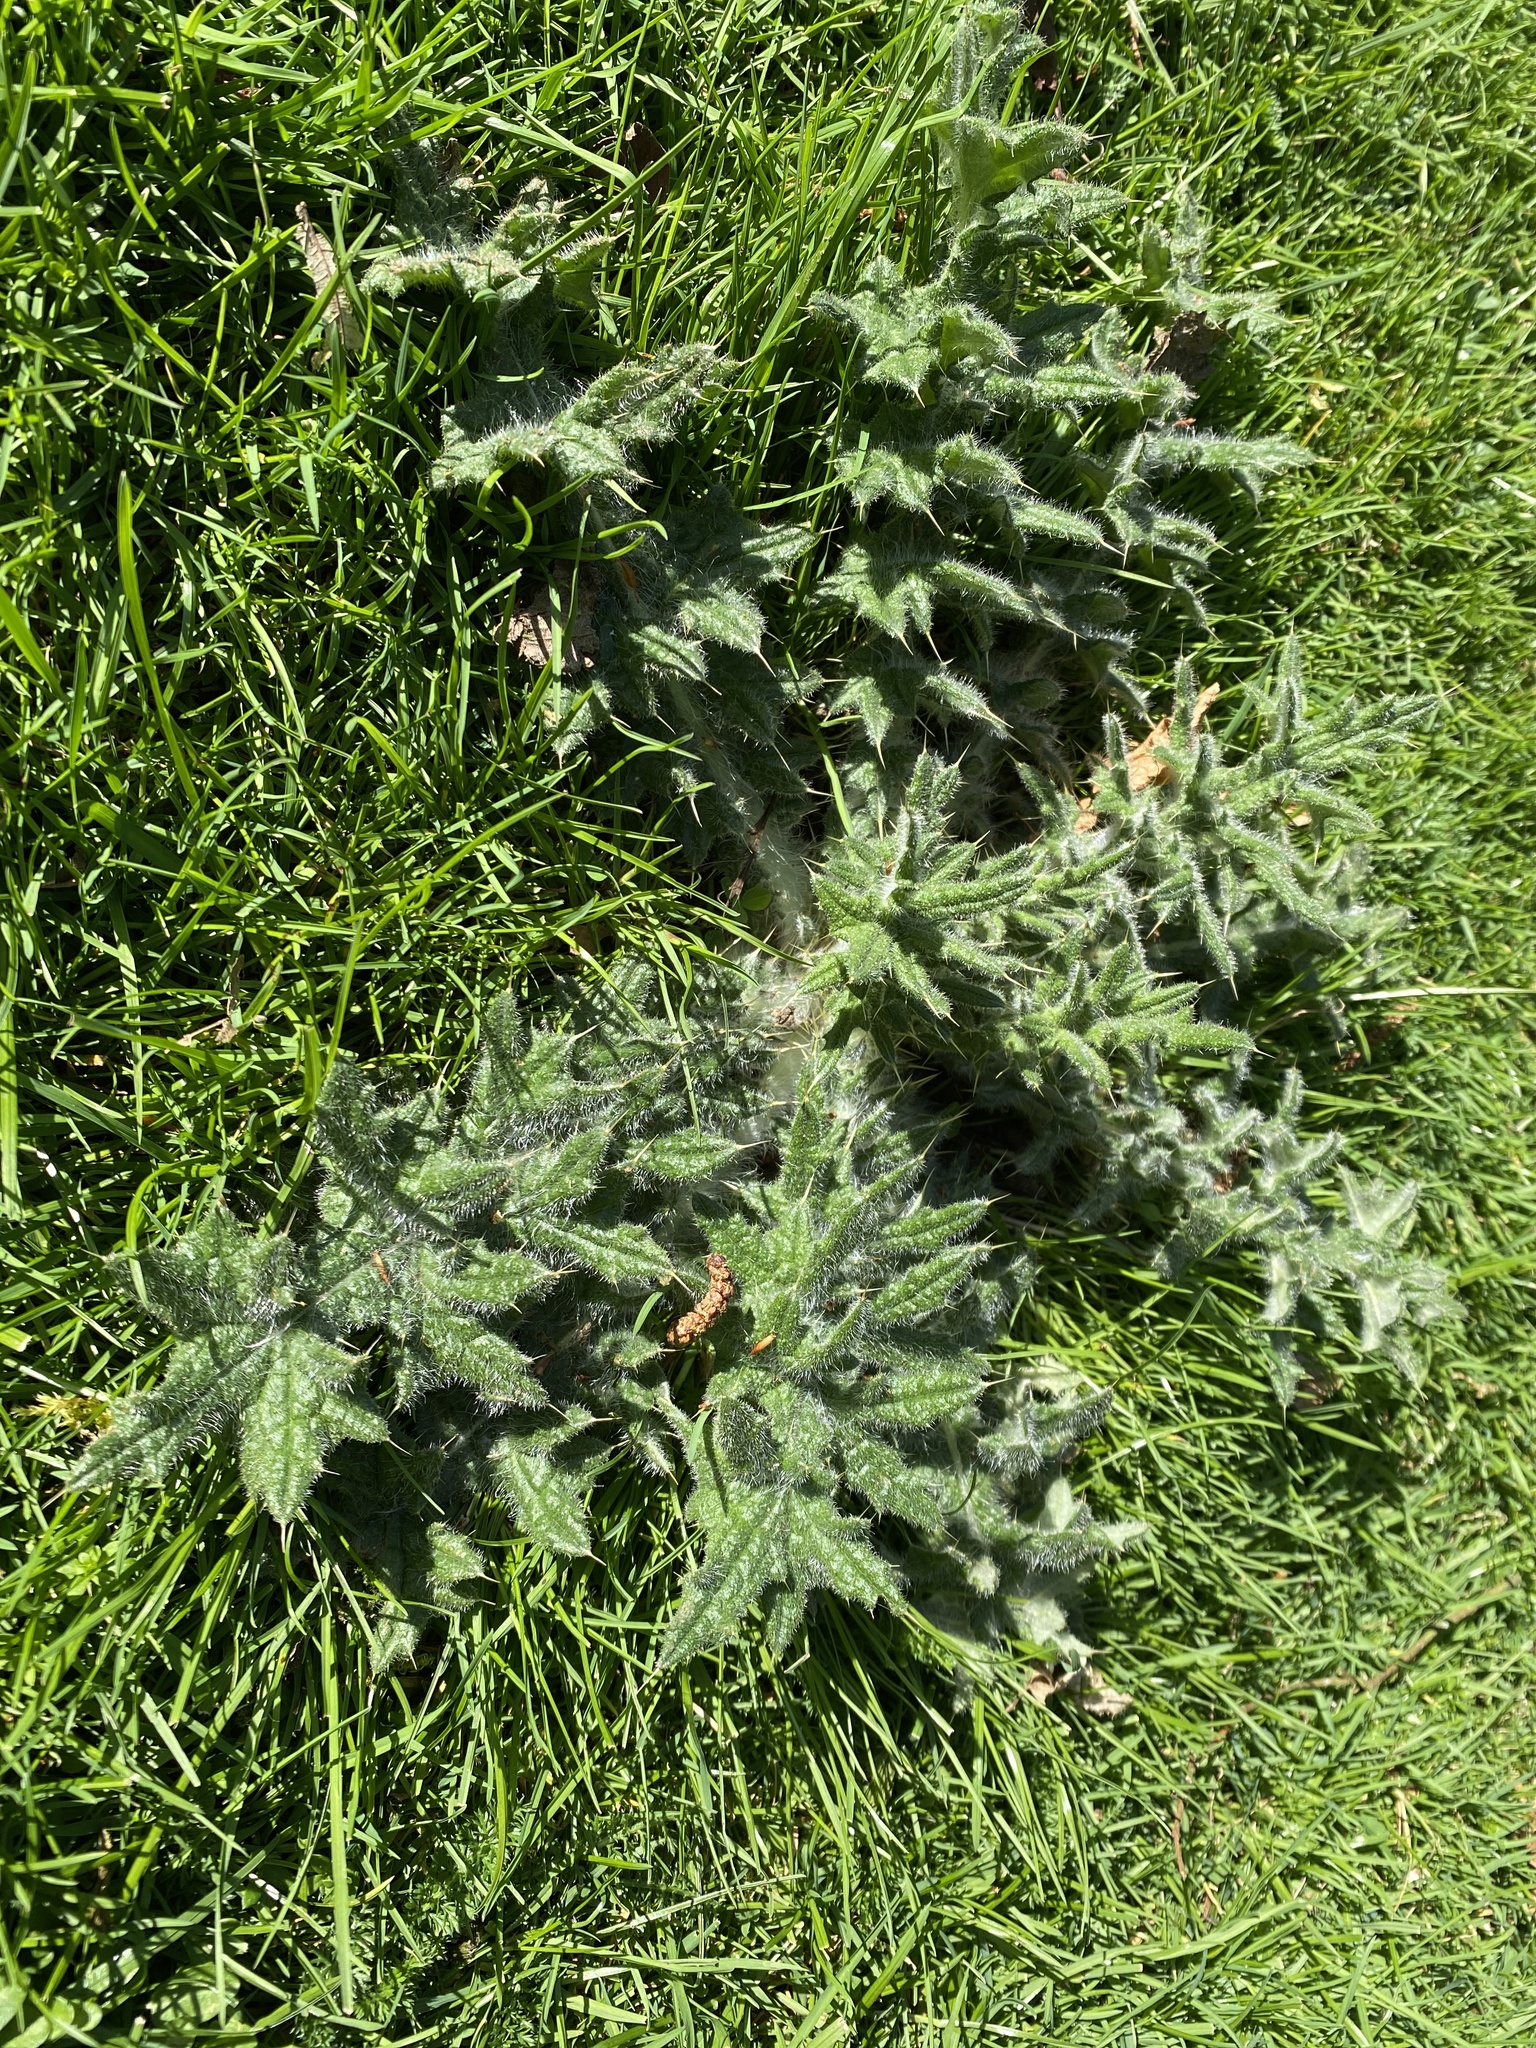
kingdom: Plantae
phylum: Tracheophyta
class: Magnoliopsida
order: Asterales
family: Asteraceae
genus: Cirsium
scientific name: Cirsium vulgare
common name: Bull thistle
